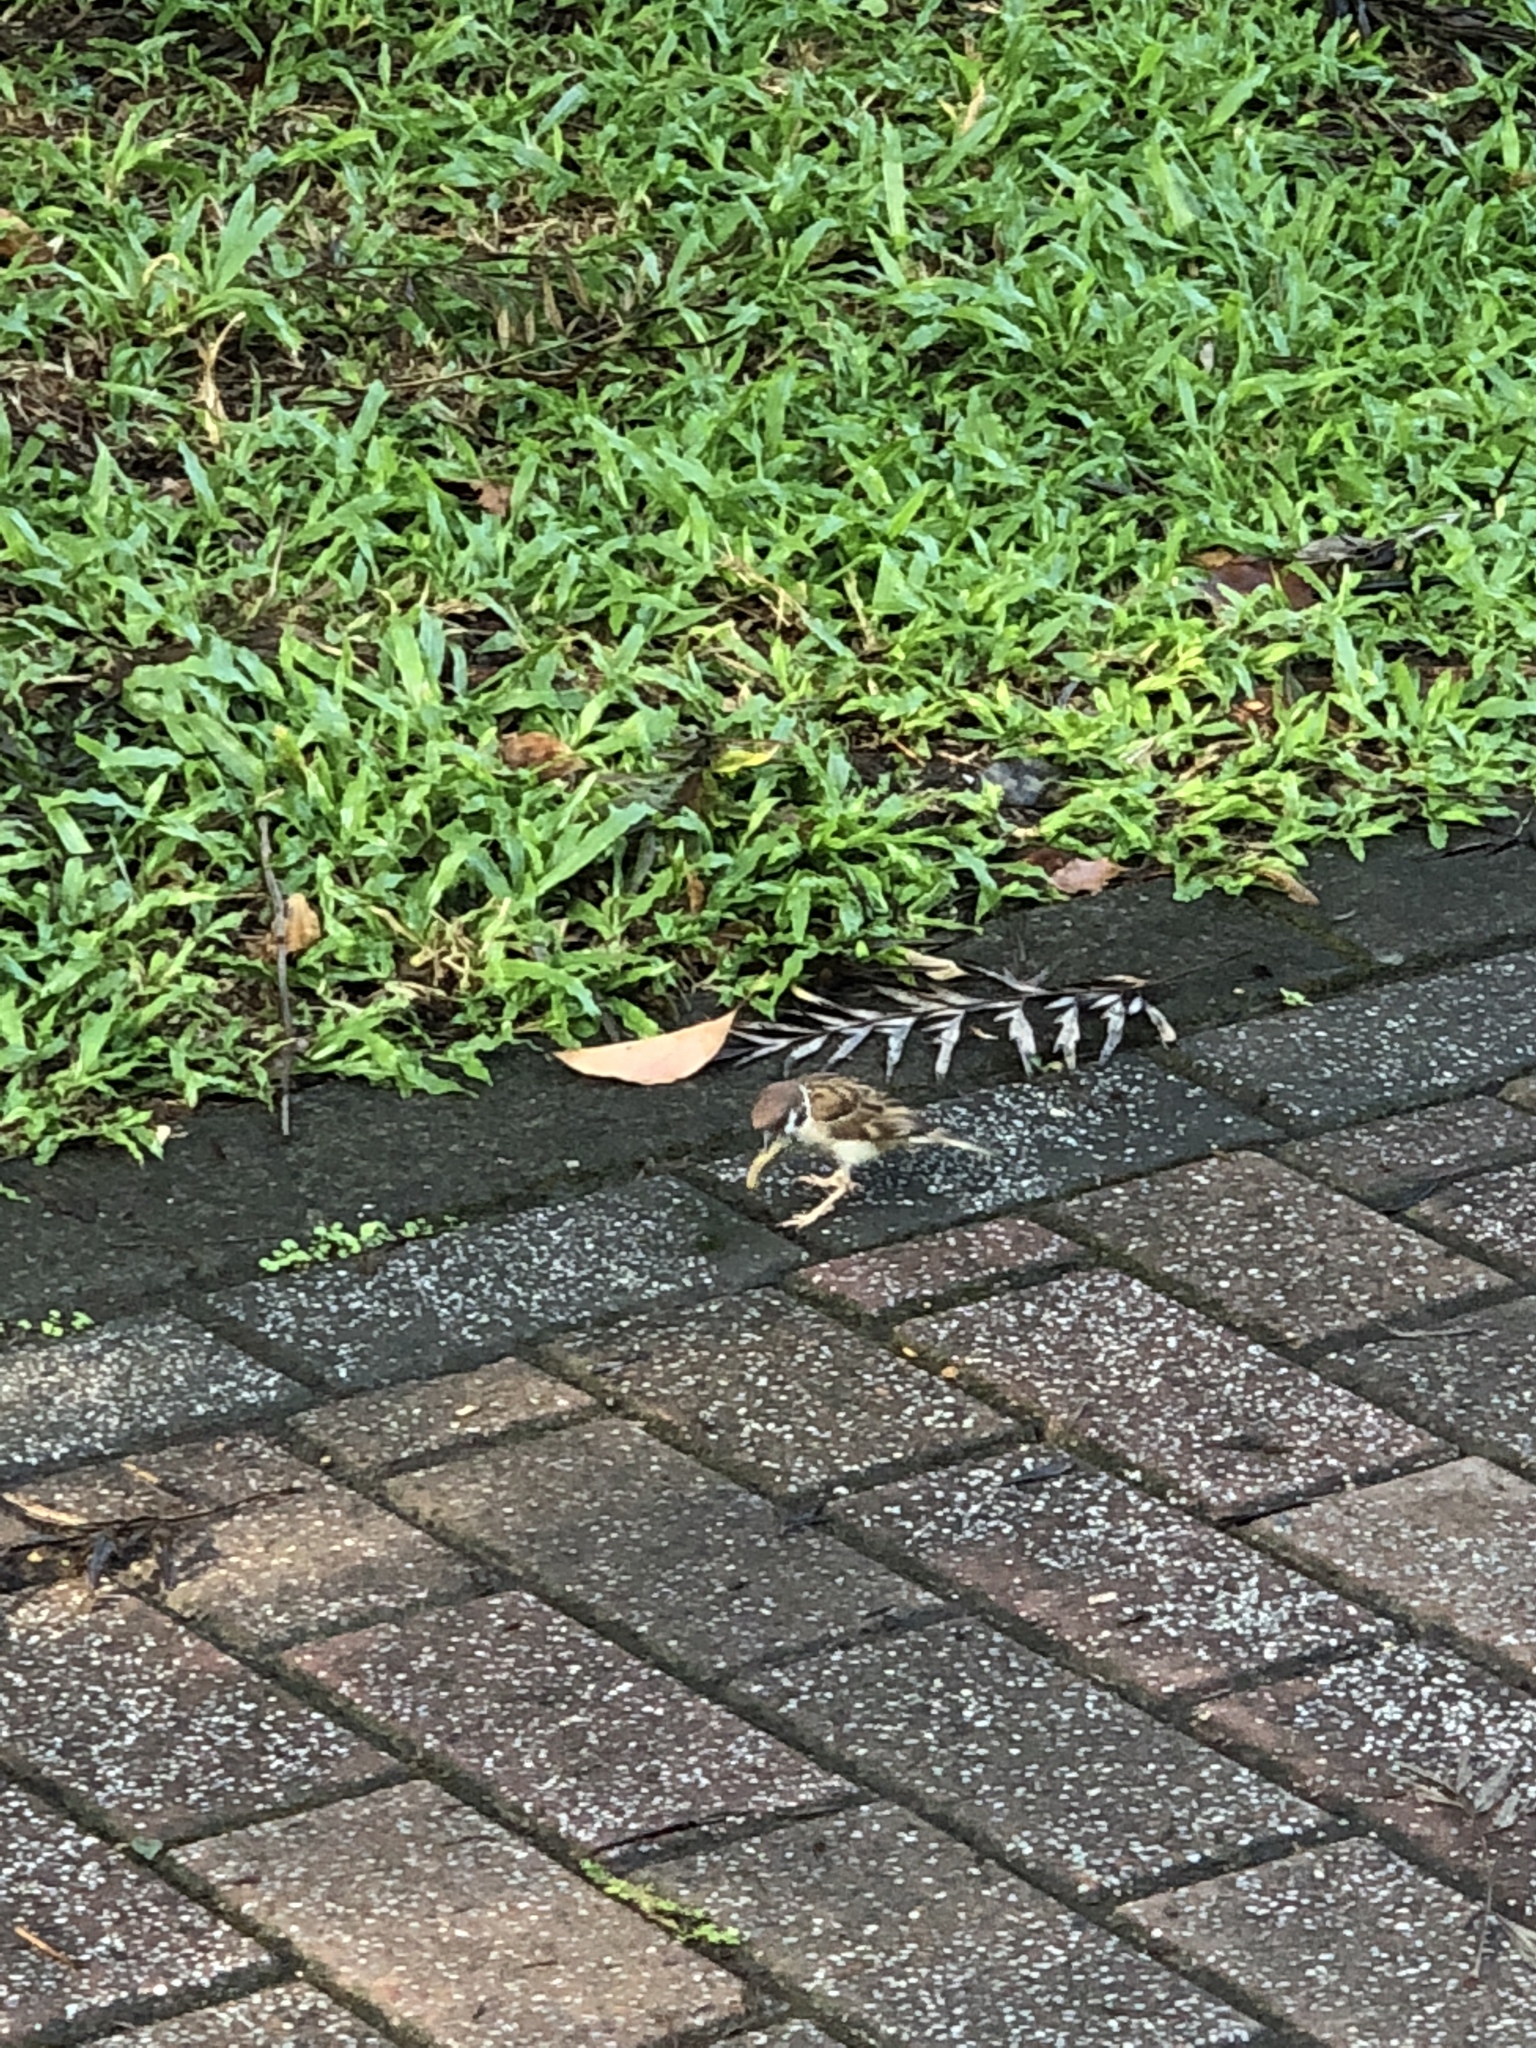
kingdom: Animalia
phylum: Chordata
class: Aves
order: Passeriformes
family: Passeridae
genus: Passer
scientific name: Passer montanus
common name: Eurasian tree sparrow
